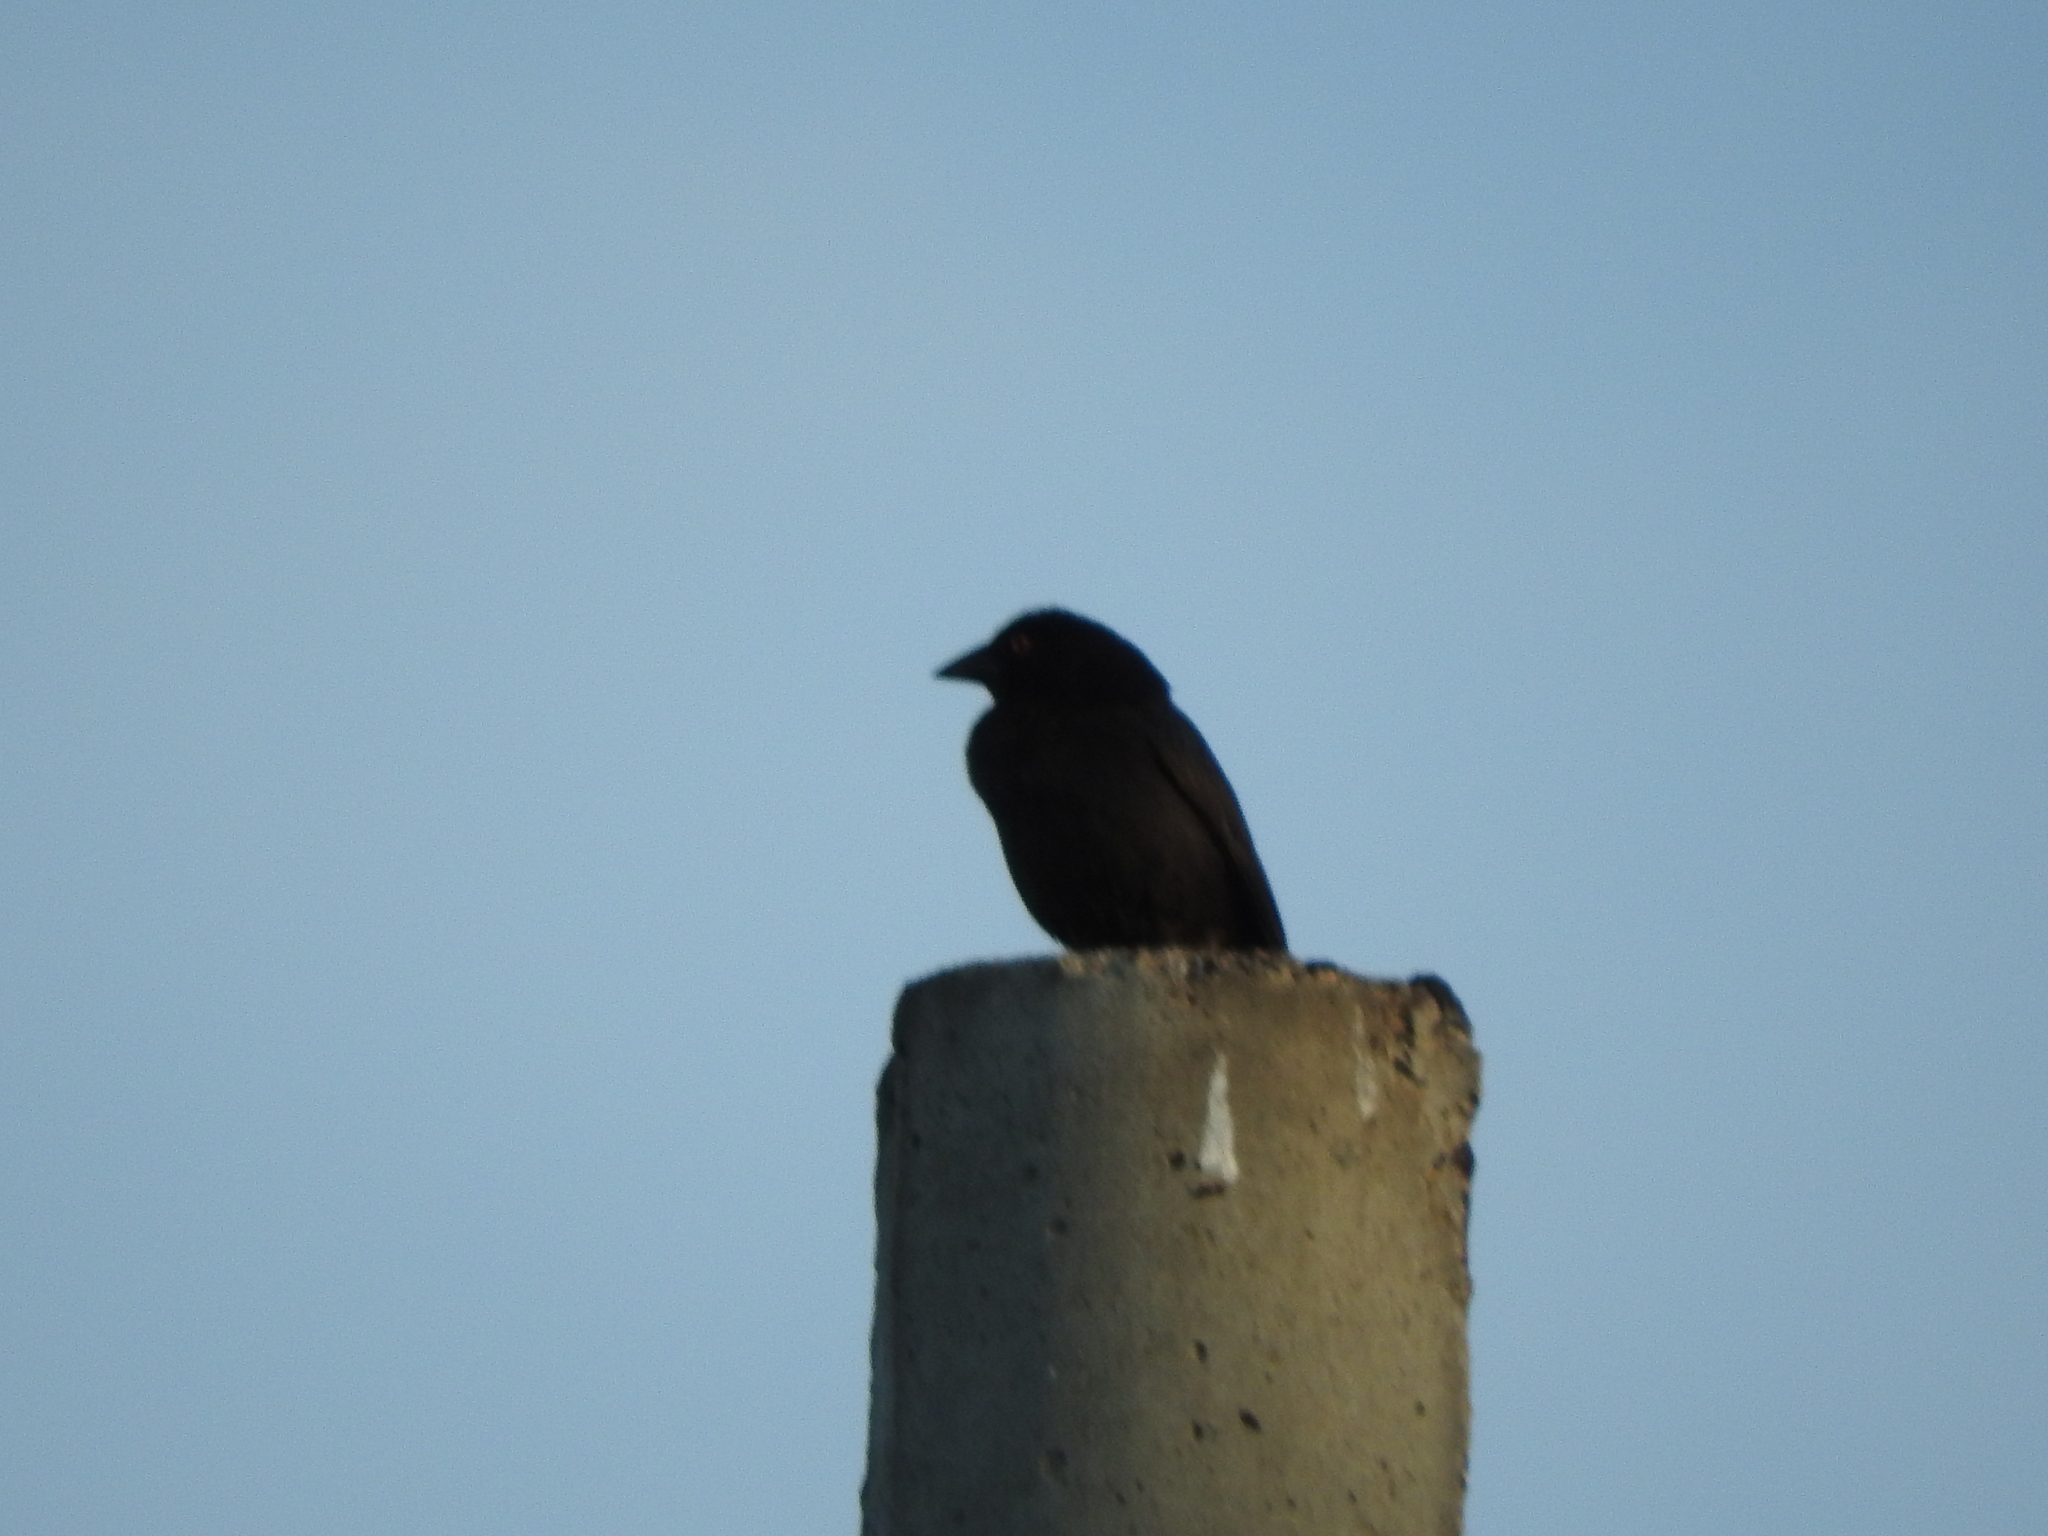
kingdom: Animalia
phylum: Chordata
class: Aves
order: Passeriformes
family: Icteridae
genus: Molothrus
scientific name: Molothrus aeneus
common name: Bronzed cowbird
